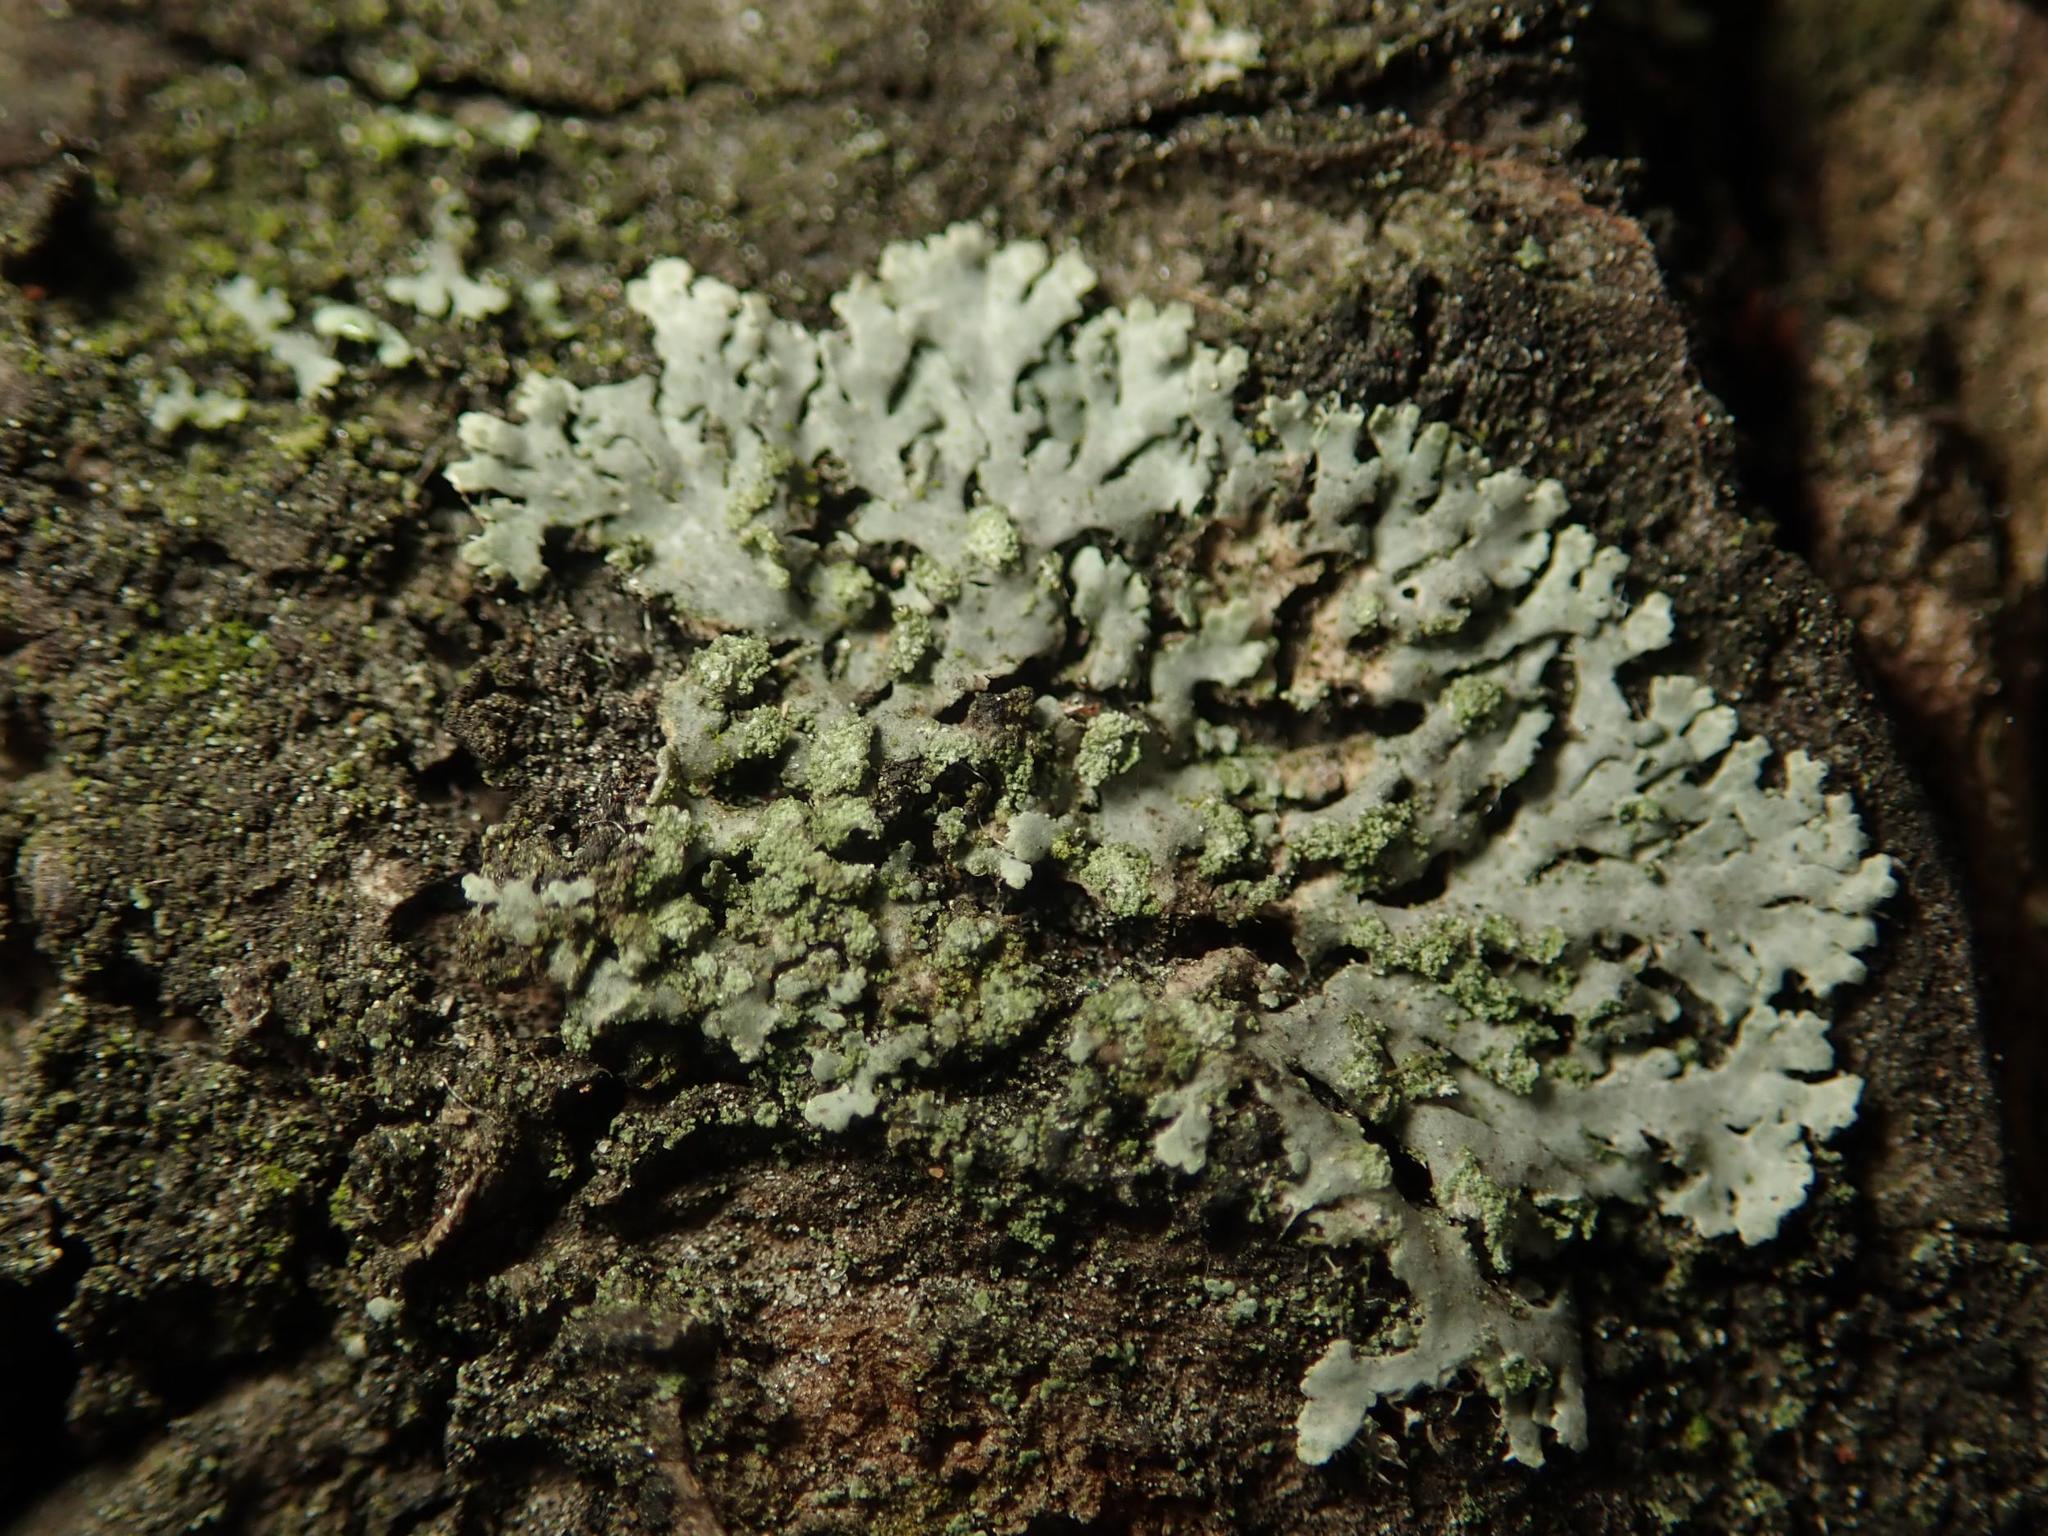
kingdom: Fungi
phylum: Ascomycota
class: Lecanoromycetes
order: Caliciales
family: Physciaceae
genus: Phaeophyscia
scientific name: Phaeophyscia orbicularis
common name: Mealy shadow lichen
